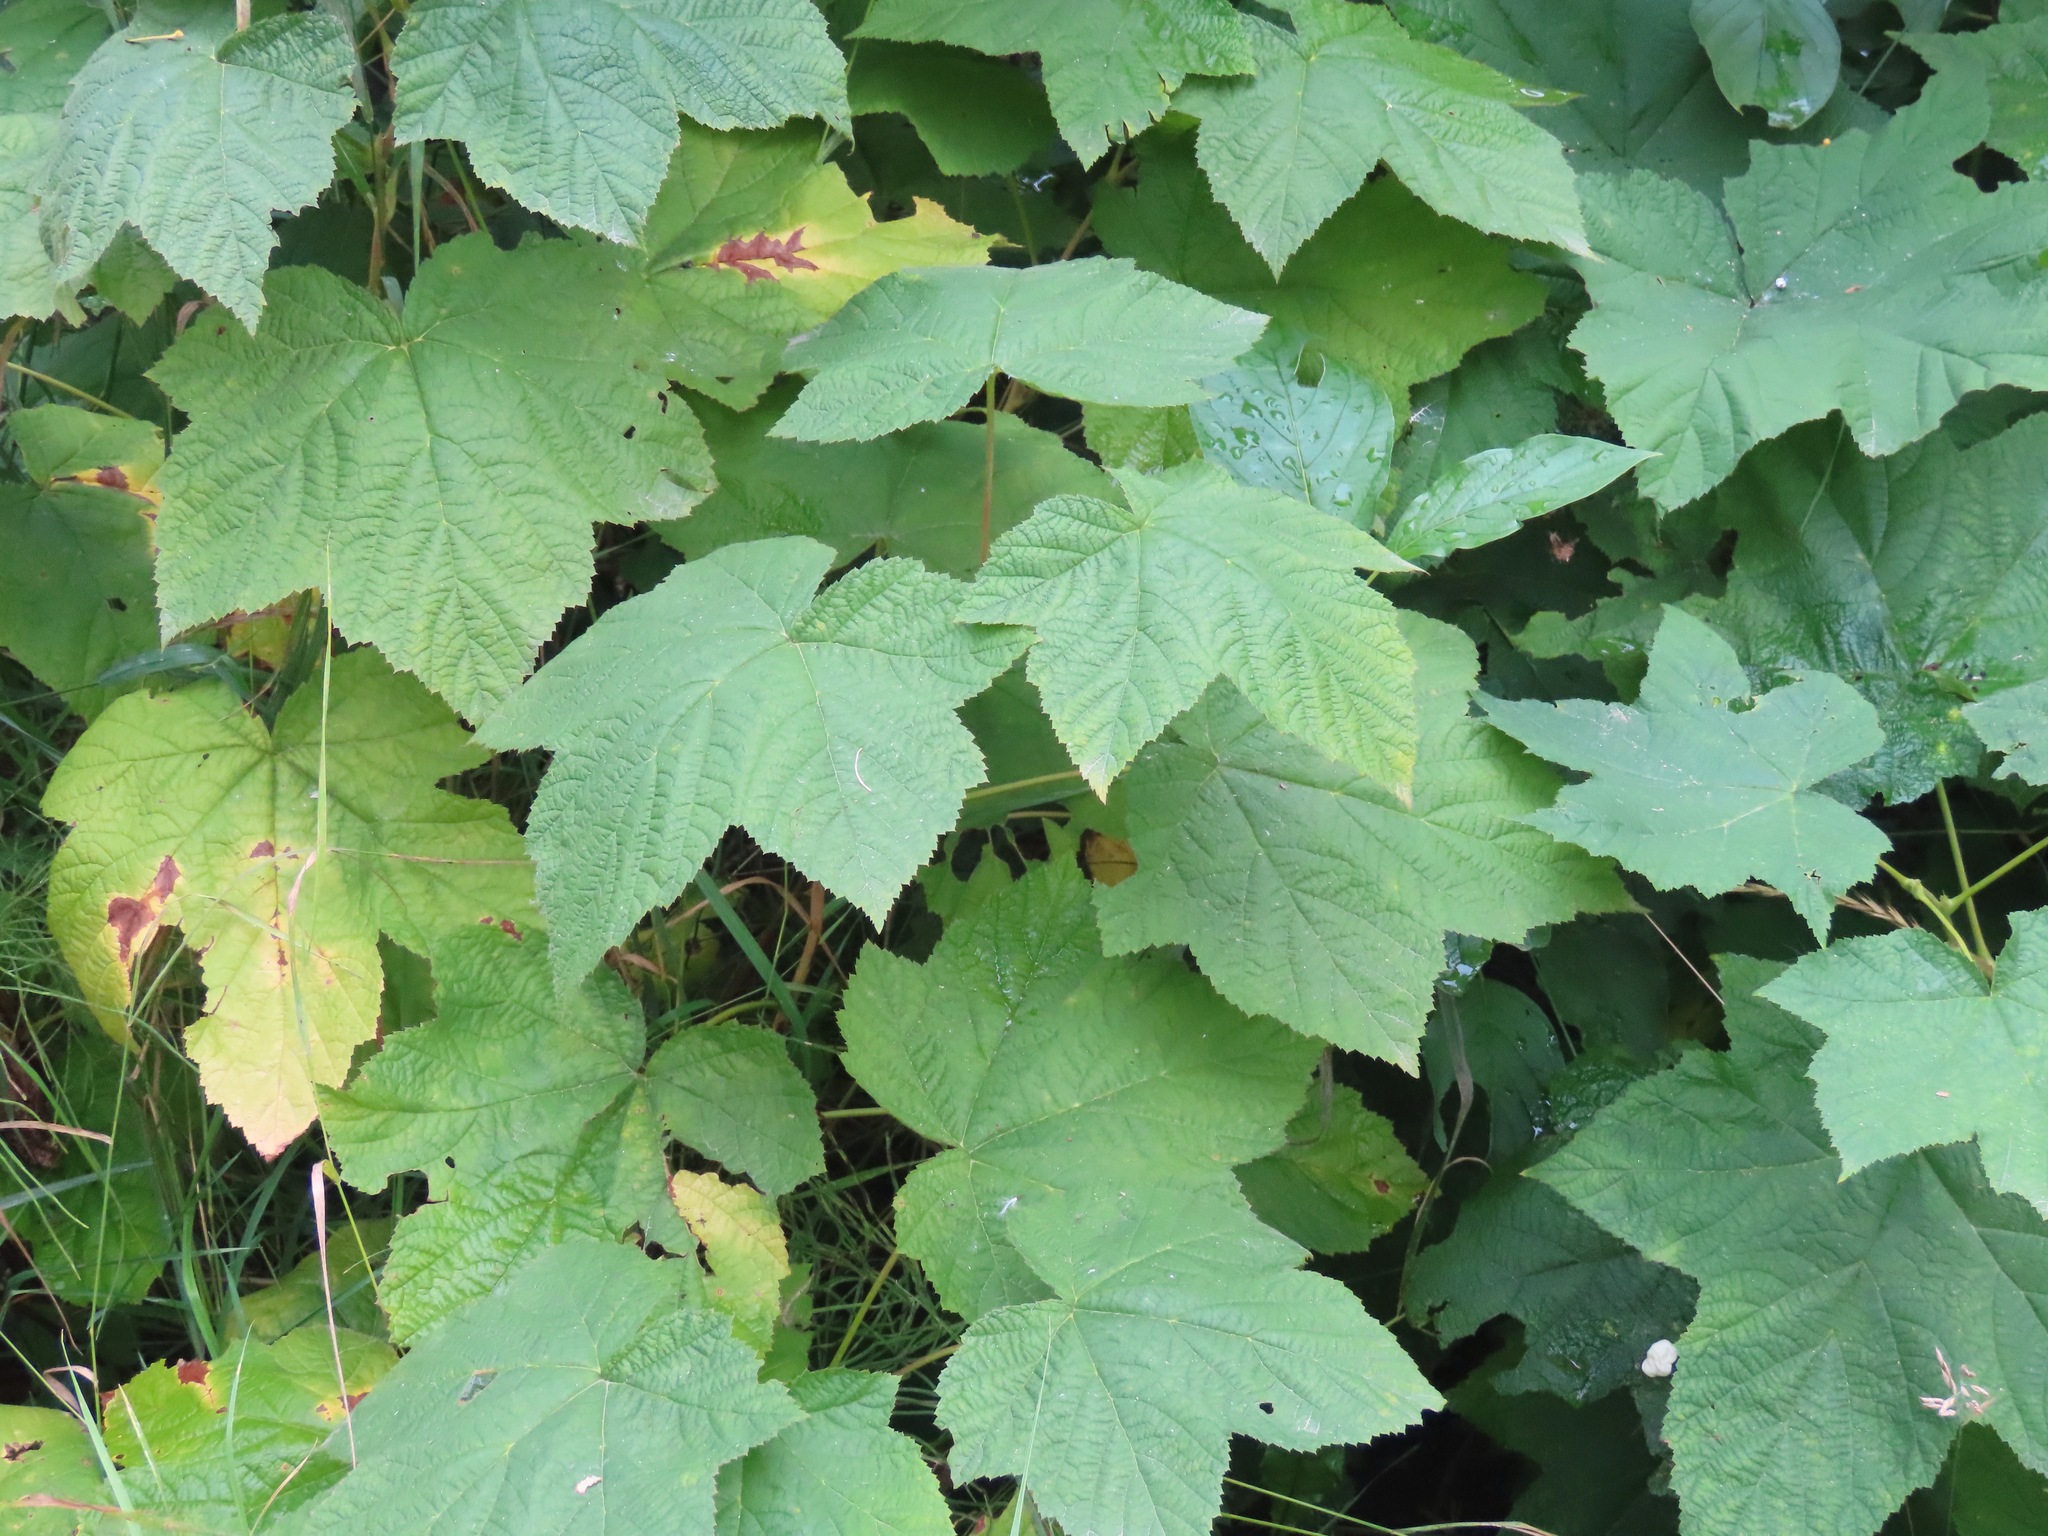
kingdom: Plantae
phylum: Tracheophyta
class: Magnoliopsida
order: Rosales
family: Rosaceae
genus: Rubus
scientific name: Rubus parviflorus
